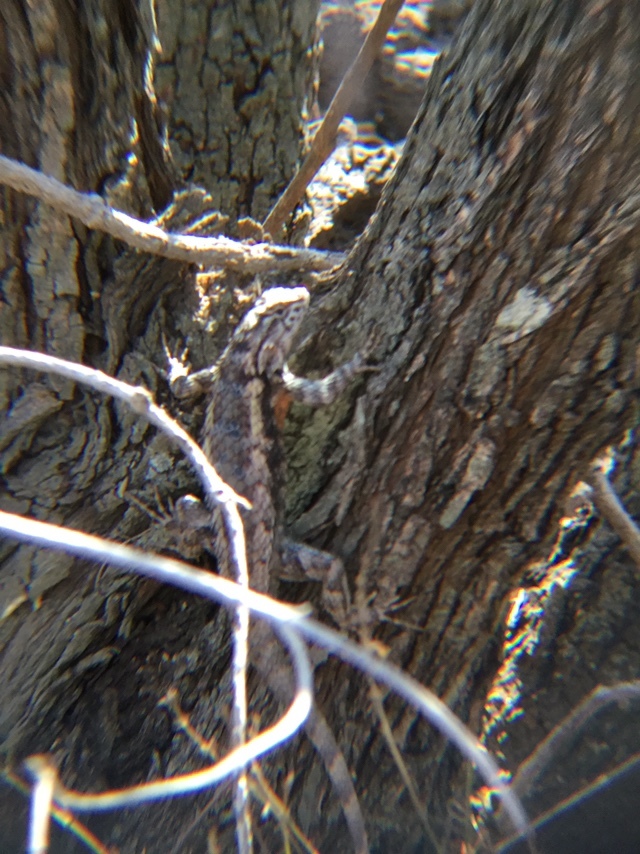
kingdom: Animalia
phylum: Chordata
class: Squamata
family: Phrynosomatidae
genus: Sceloporus
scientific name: Sceloporus spinosus
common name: Blue-spotted spiny lizard [caeruleopunctatus]
